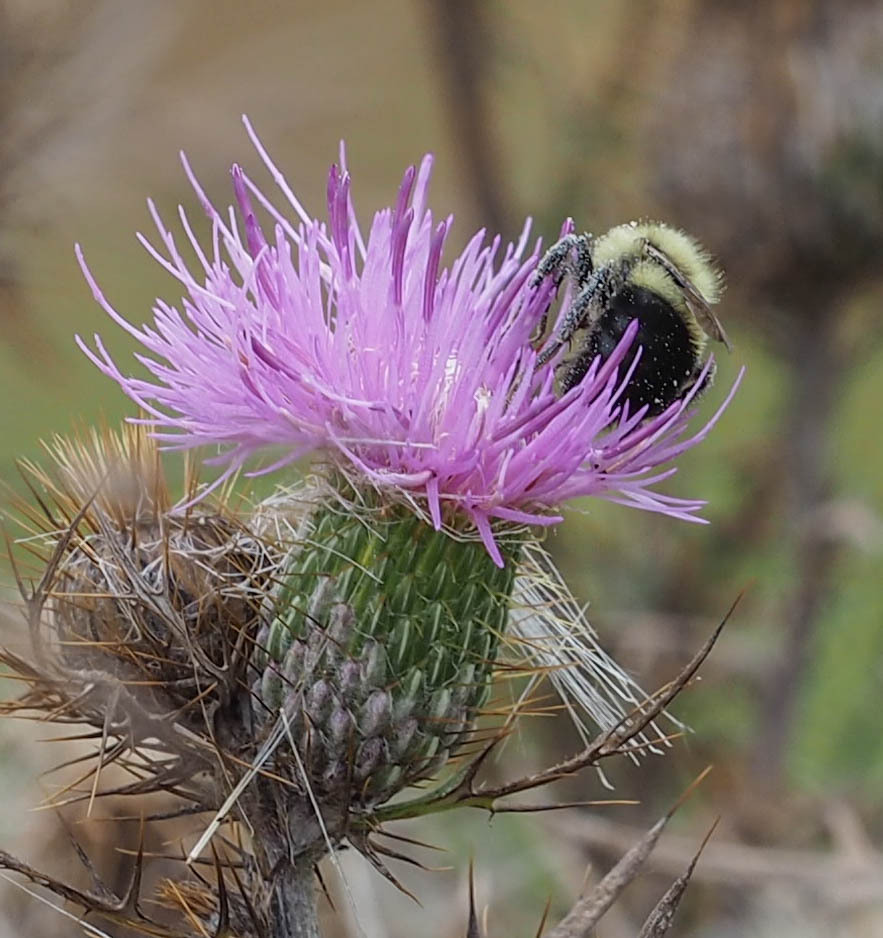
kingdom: Animalia
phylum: Arthropoda
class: Insecta
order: Hymenoptera
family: Apidae
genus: Bombus
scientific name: Bombus impatiens
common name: Common eastern bumble bee
